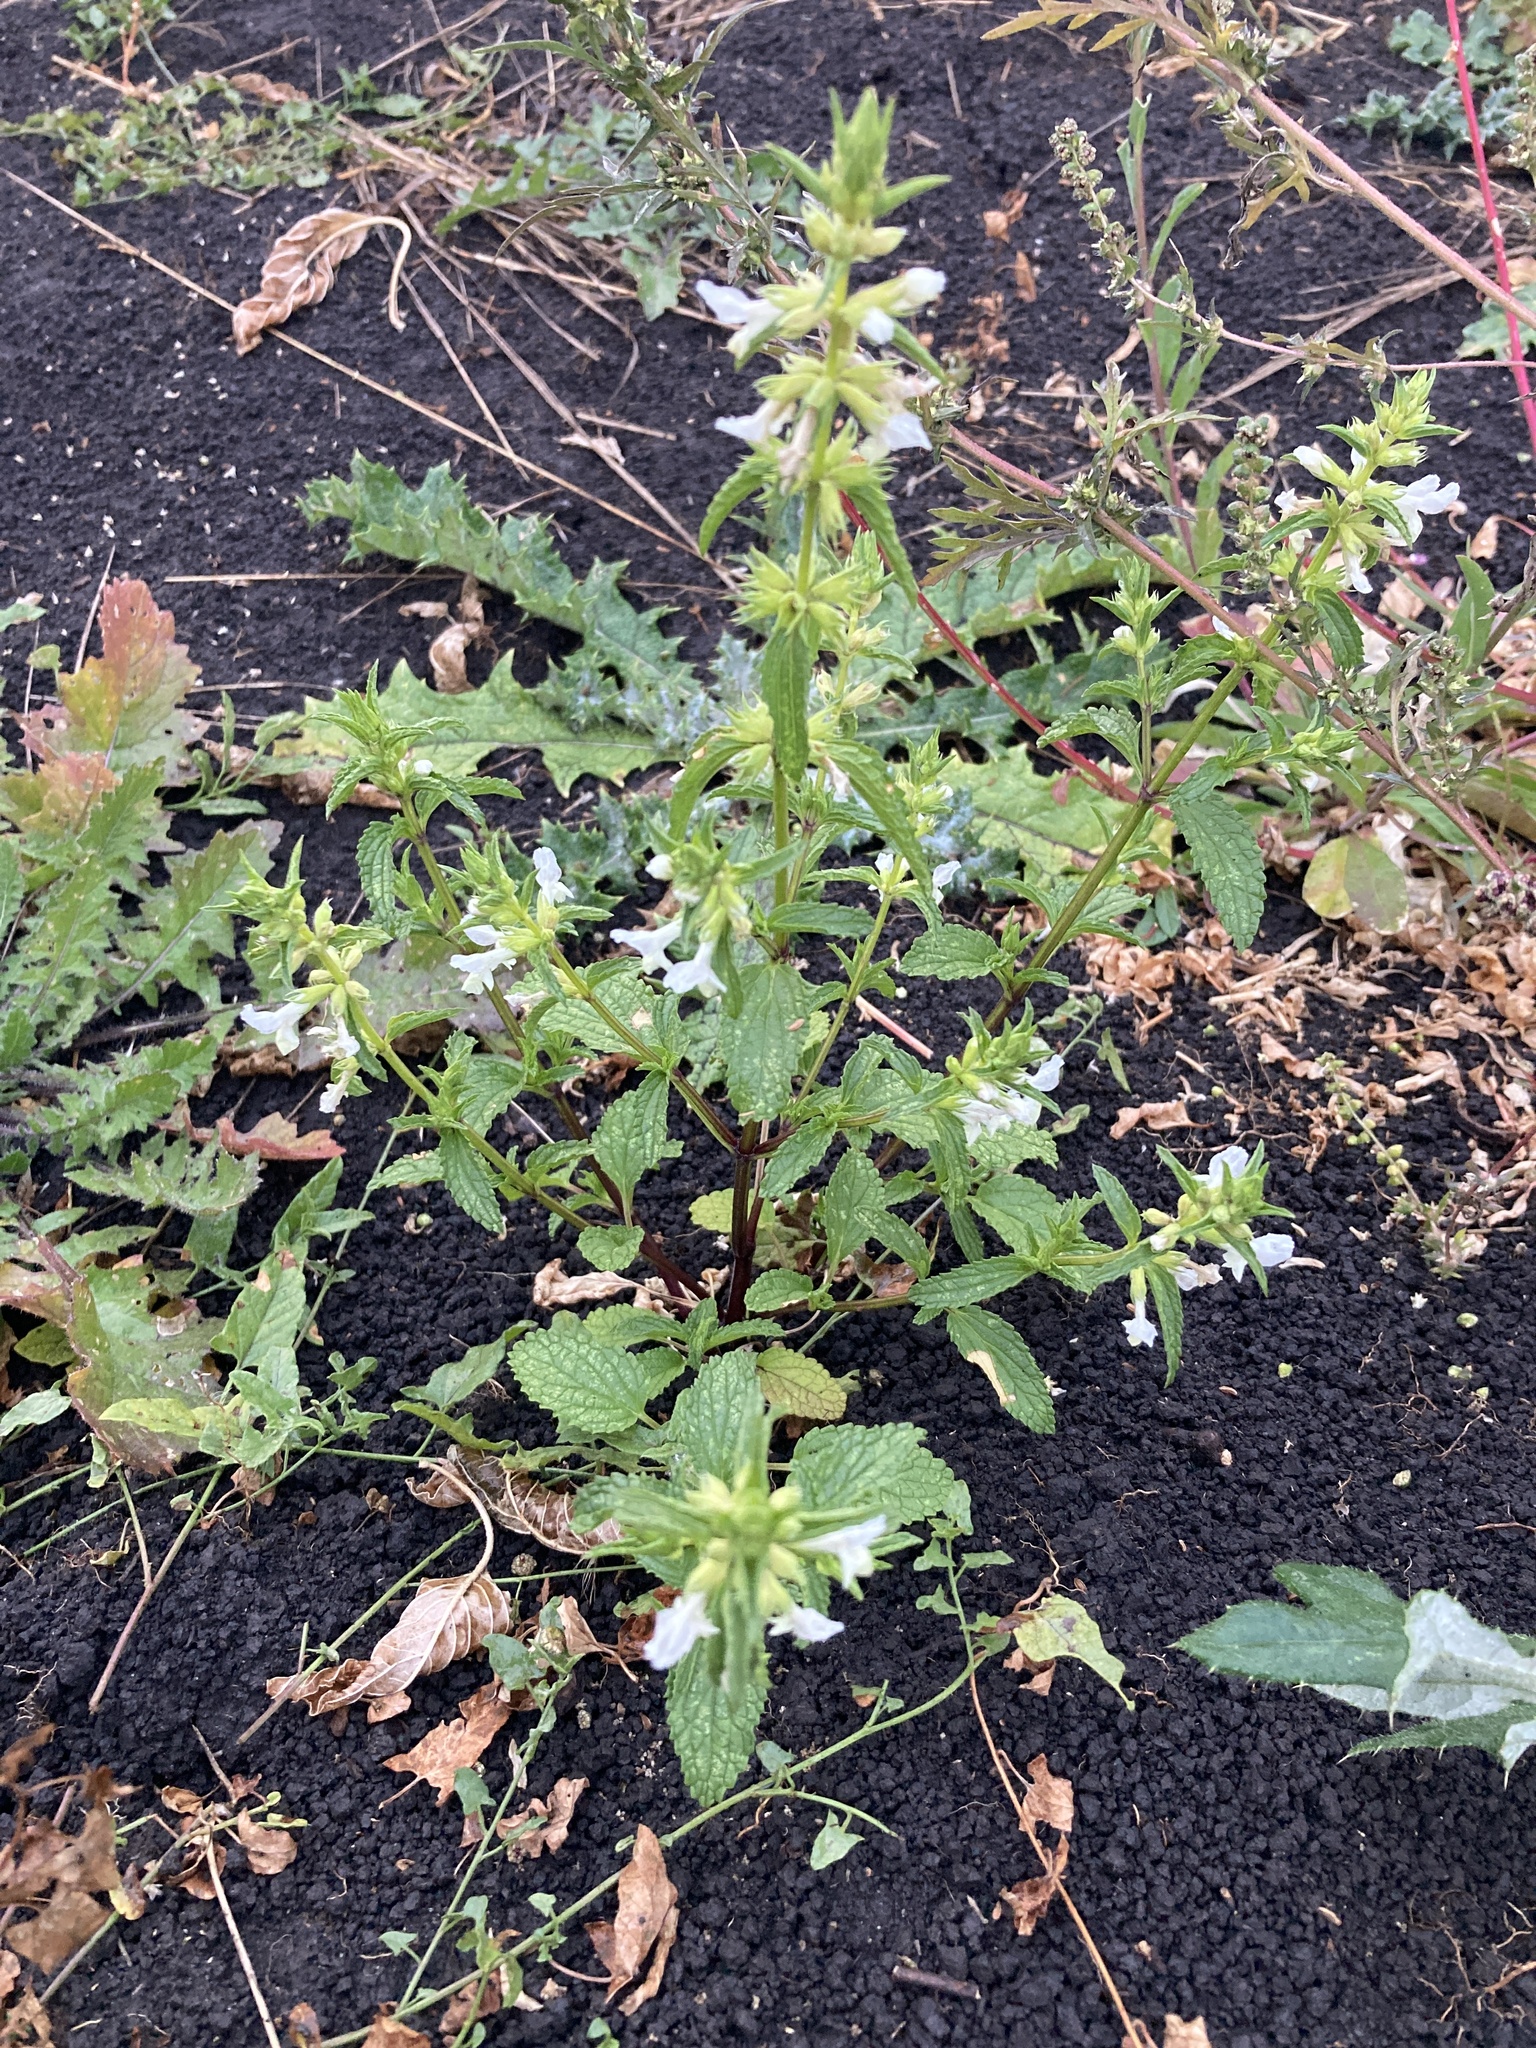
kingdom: Plantae
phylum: Tracheophyta
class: Magnoliopsida
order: Lamiales
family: Lamiaceae
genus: Stachys
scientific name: Stachys annua
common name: Annual yellow-woundwort
